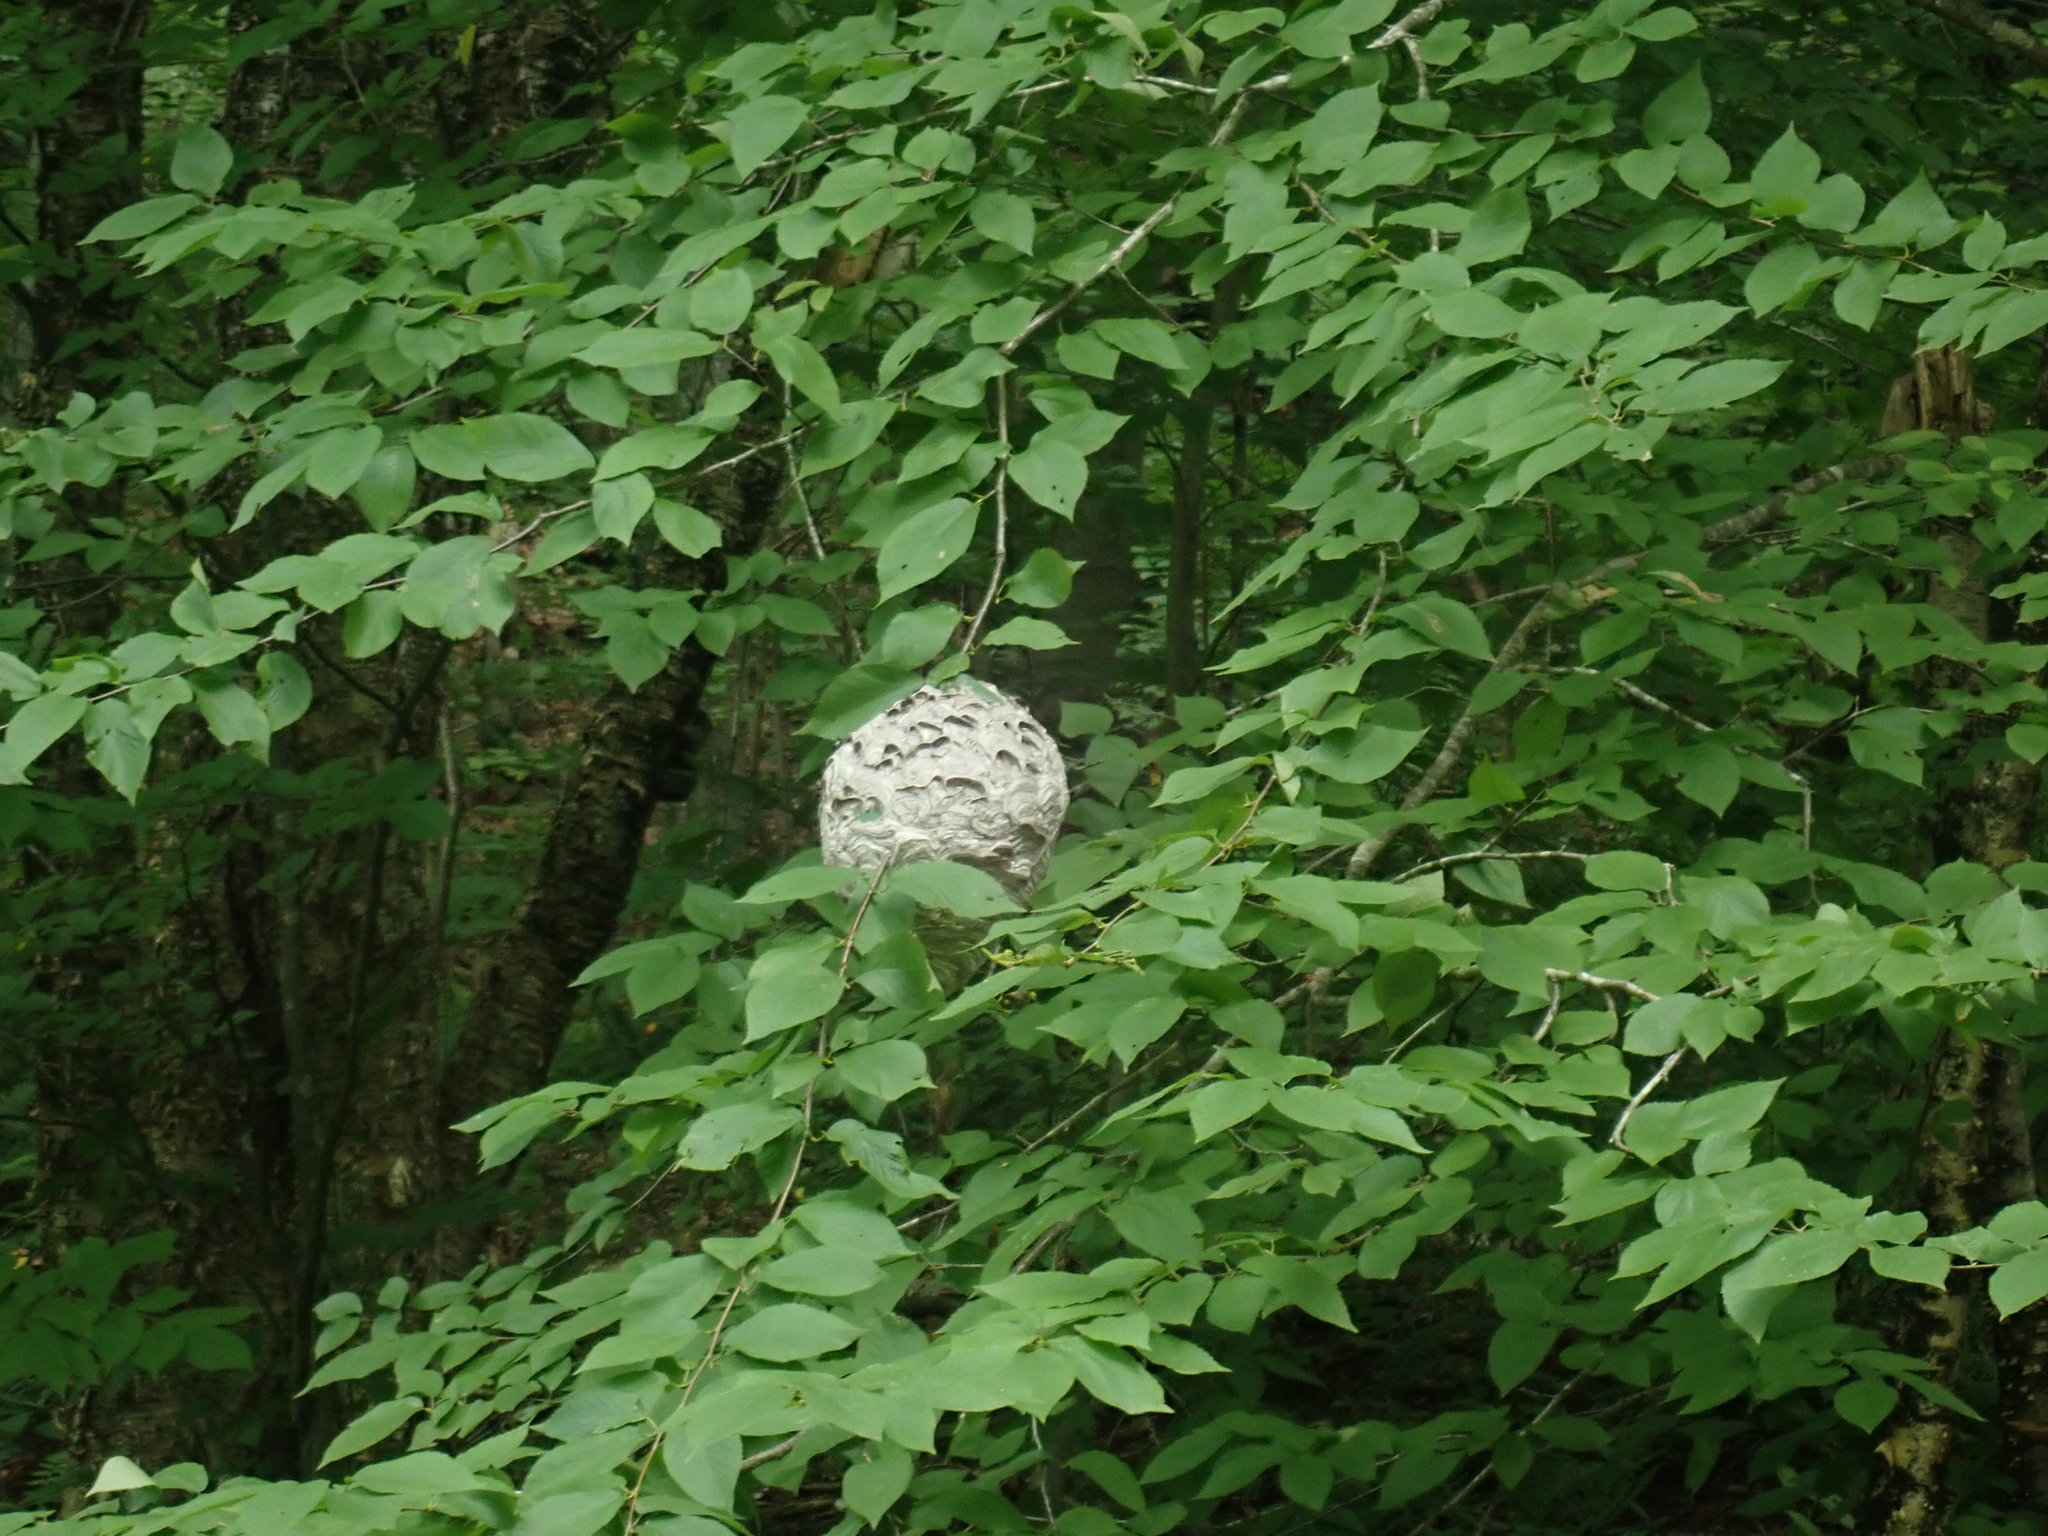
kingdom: Animalia
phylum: Arthropoda
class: Insecta
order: Hymenoptera
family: Vespidae
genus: Dolichovespula
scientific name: Dolichovespula maculata
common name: Bald-faced hornet
